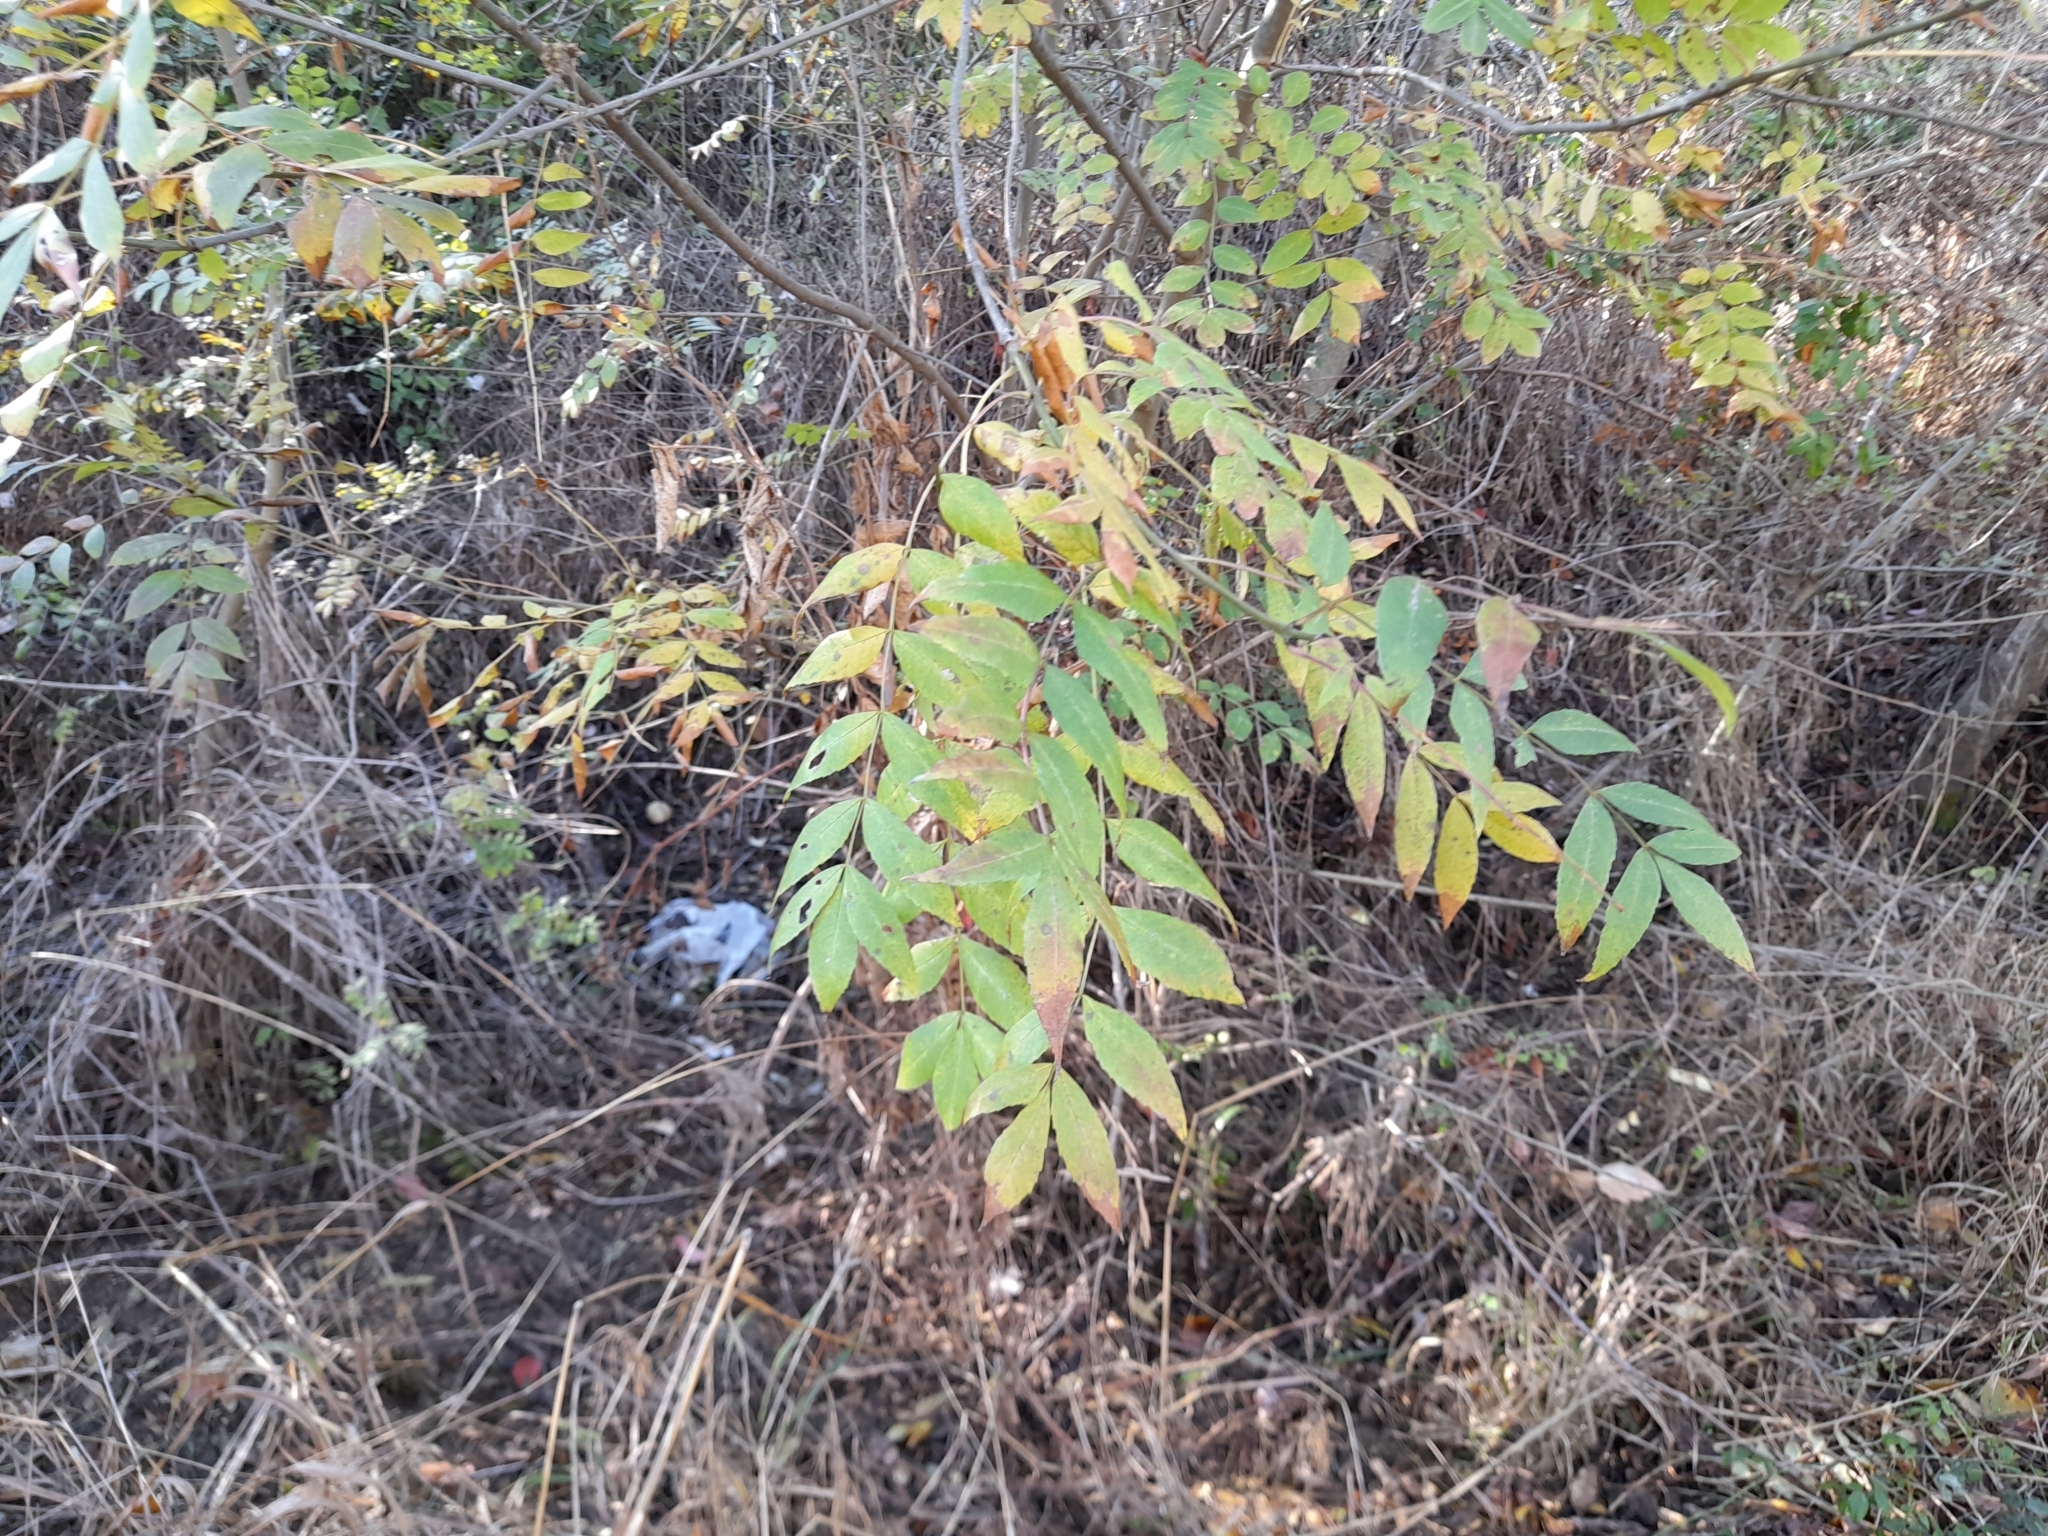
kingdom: Plantae
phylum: Tracheophyta
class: Magnoliopsida
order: Lamiales
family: Oleaceae
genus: Fraxinus
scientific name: Fraxinus angustifolia
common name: Narrow-leafed ash
